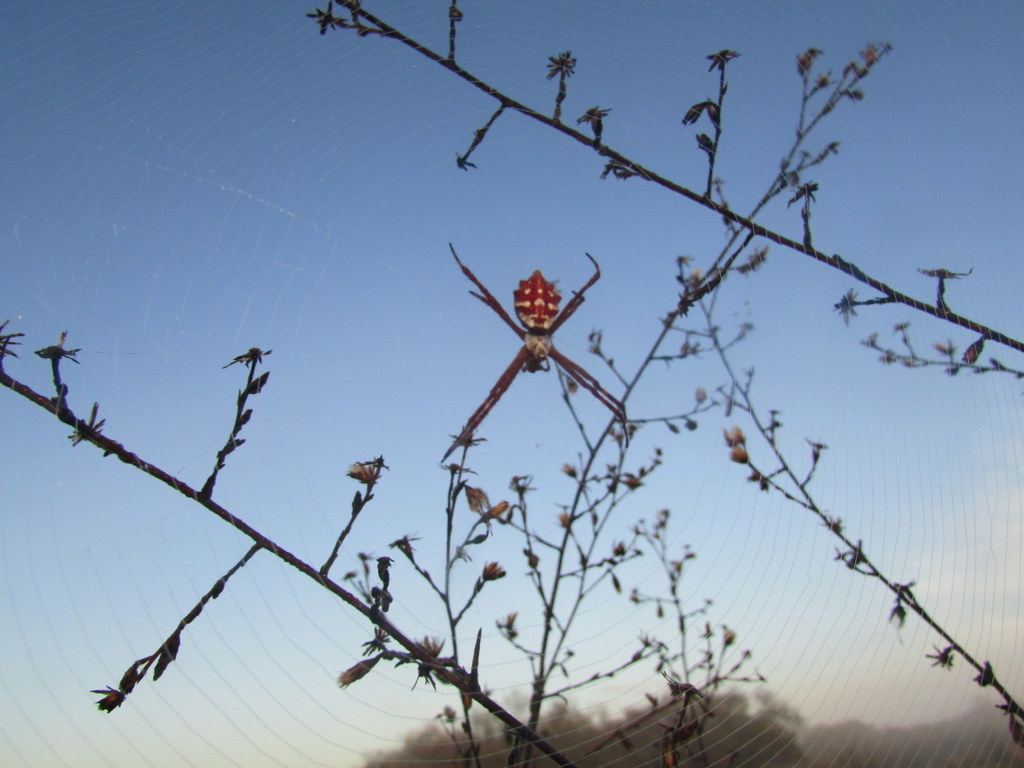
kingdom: Animalia
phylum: Arthropoda
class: Arachnida
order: Araneae
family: Araneidae
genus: Argiope
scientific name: Argiope argentata
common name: Orb weavers
